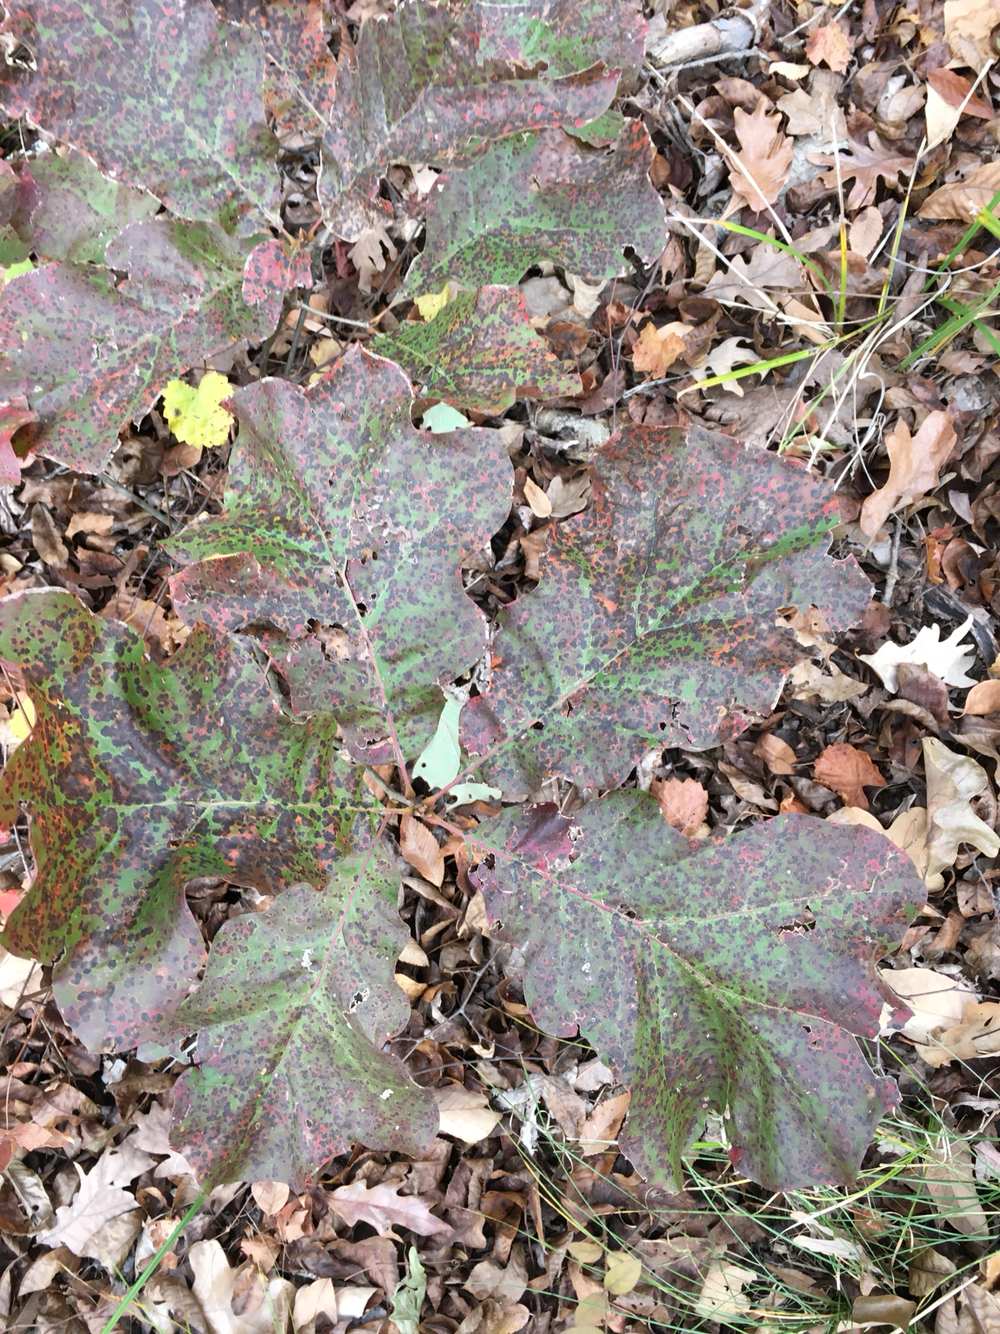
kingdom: Plantae
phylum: Tracheophyta
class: Magnoliopsida
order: Fagales
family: Fagaceae
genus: Quercus
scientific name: Quercus velutina
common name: Black oak
